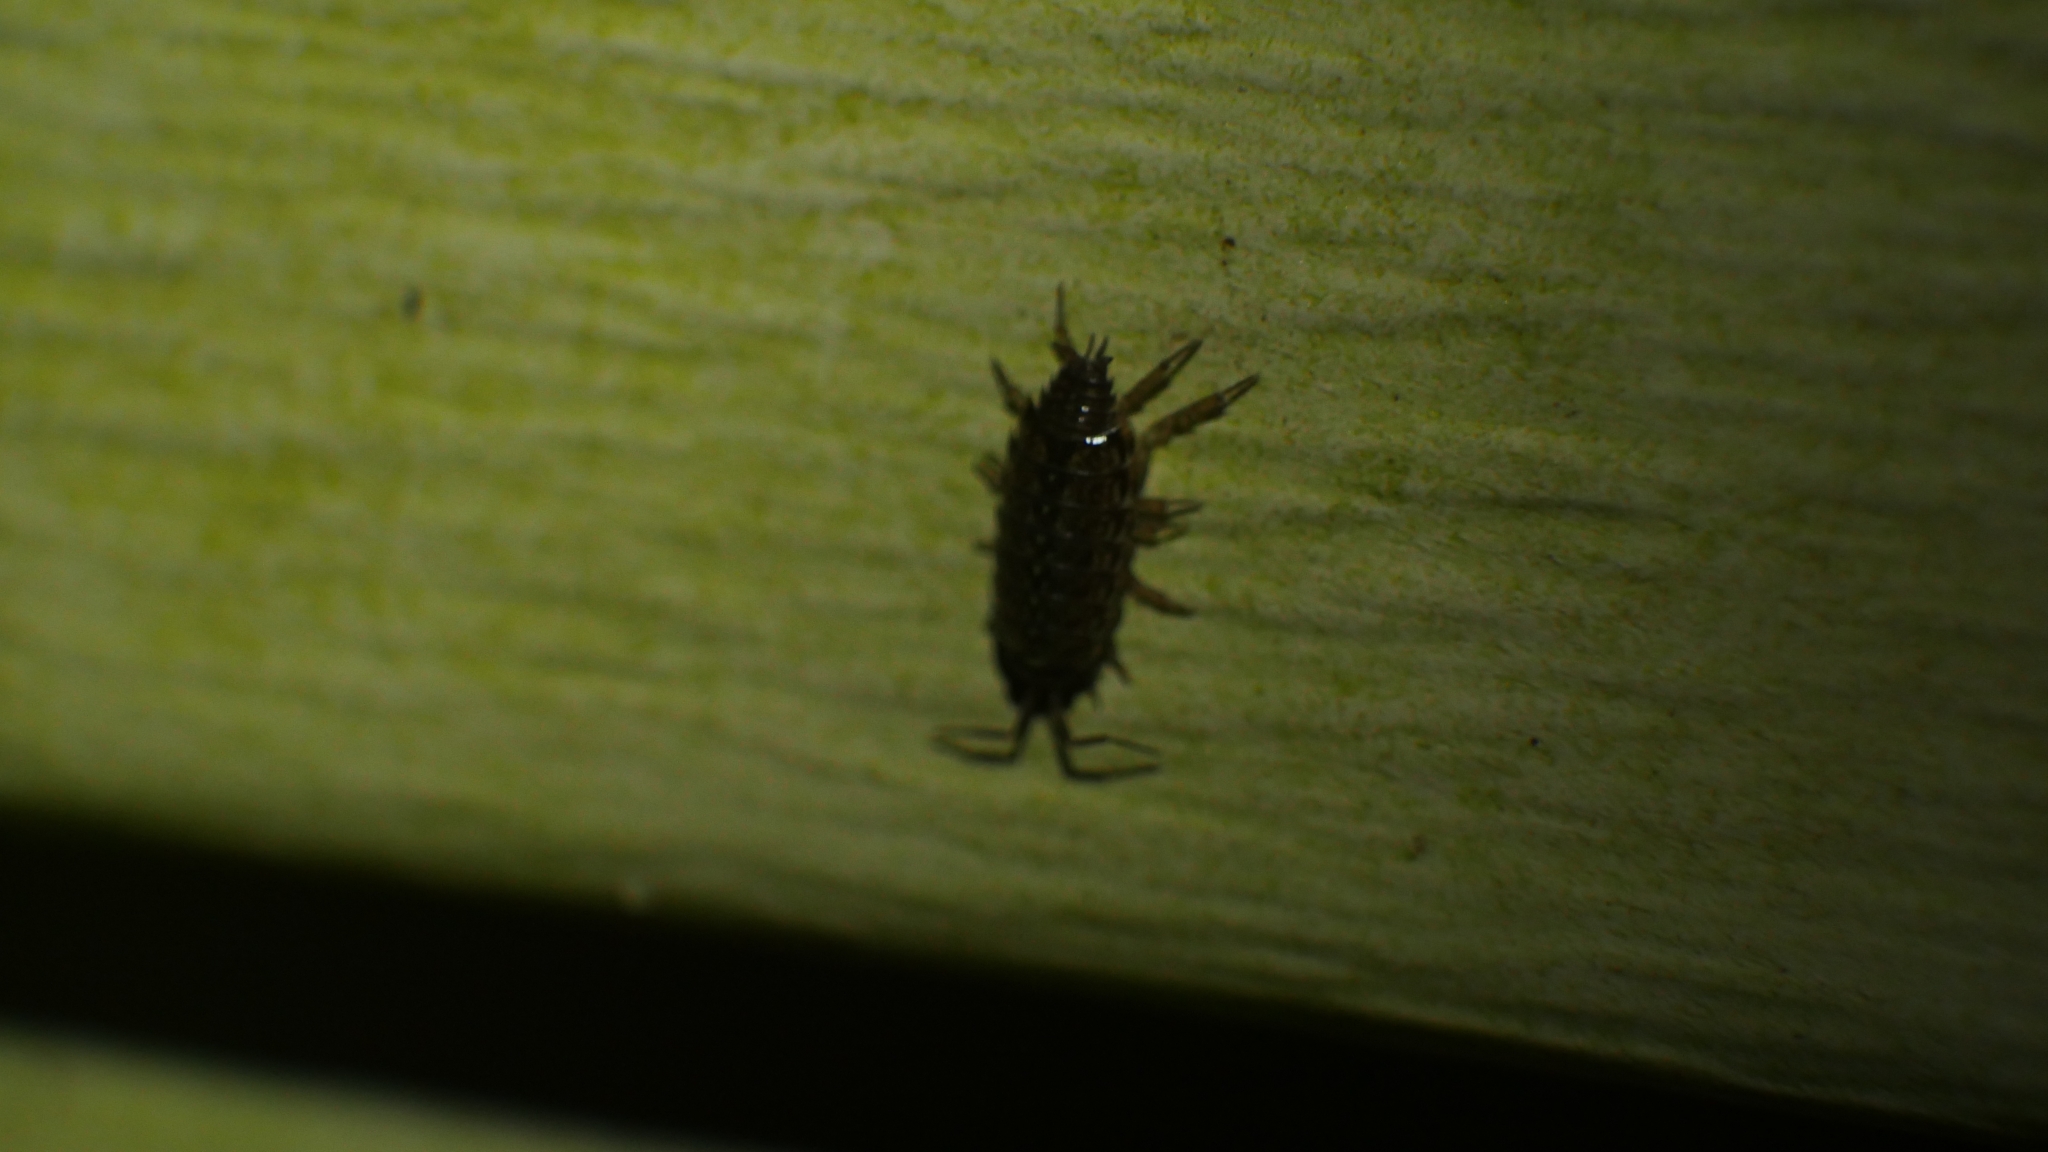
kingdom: Animalia
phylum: Arthropoda
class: Malacostraca
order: Isopoda
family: Philosciidae
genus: Philoscia
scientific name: Philoscia muscorum
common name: Common striped woodlouse
